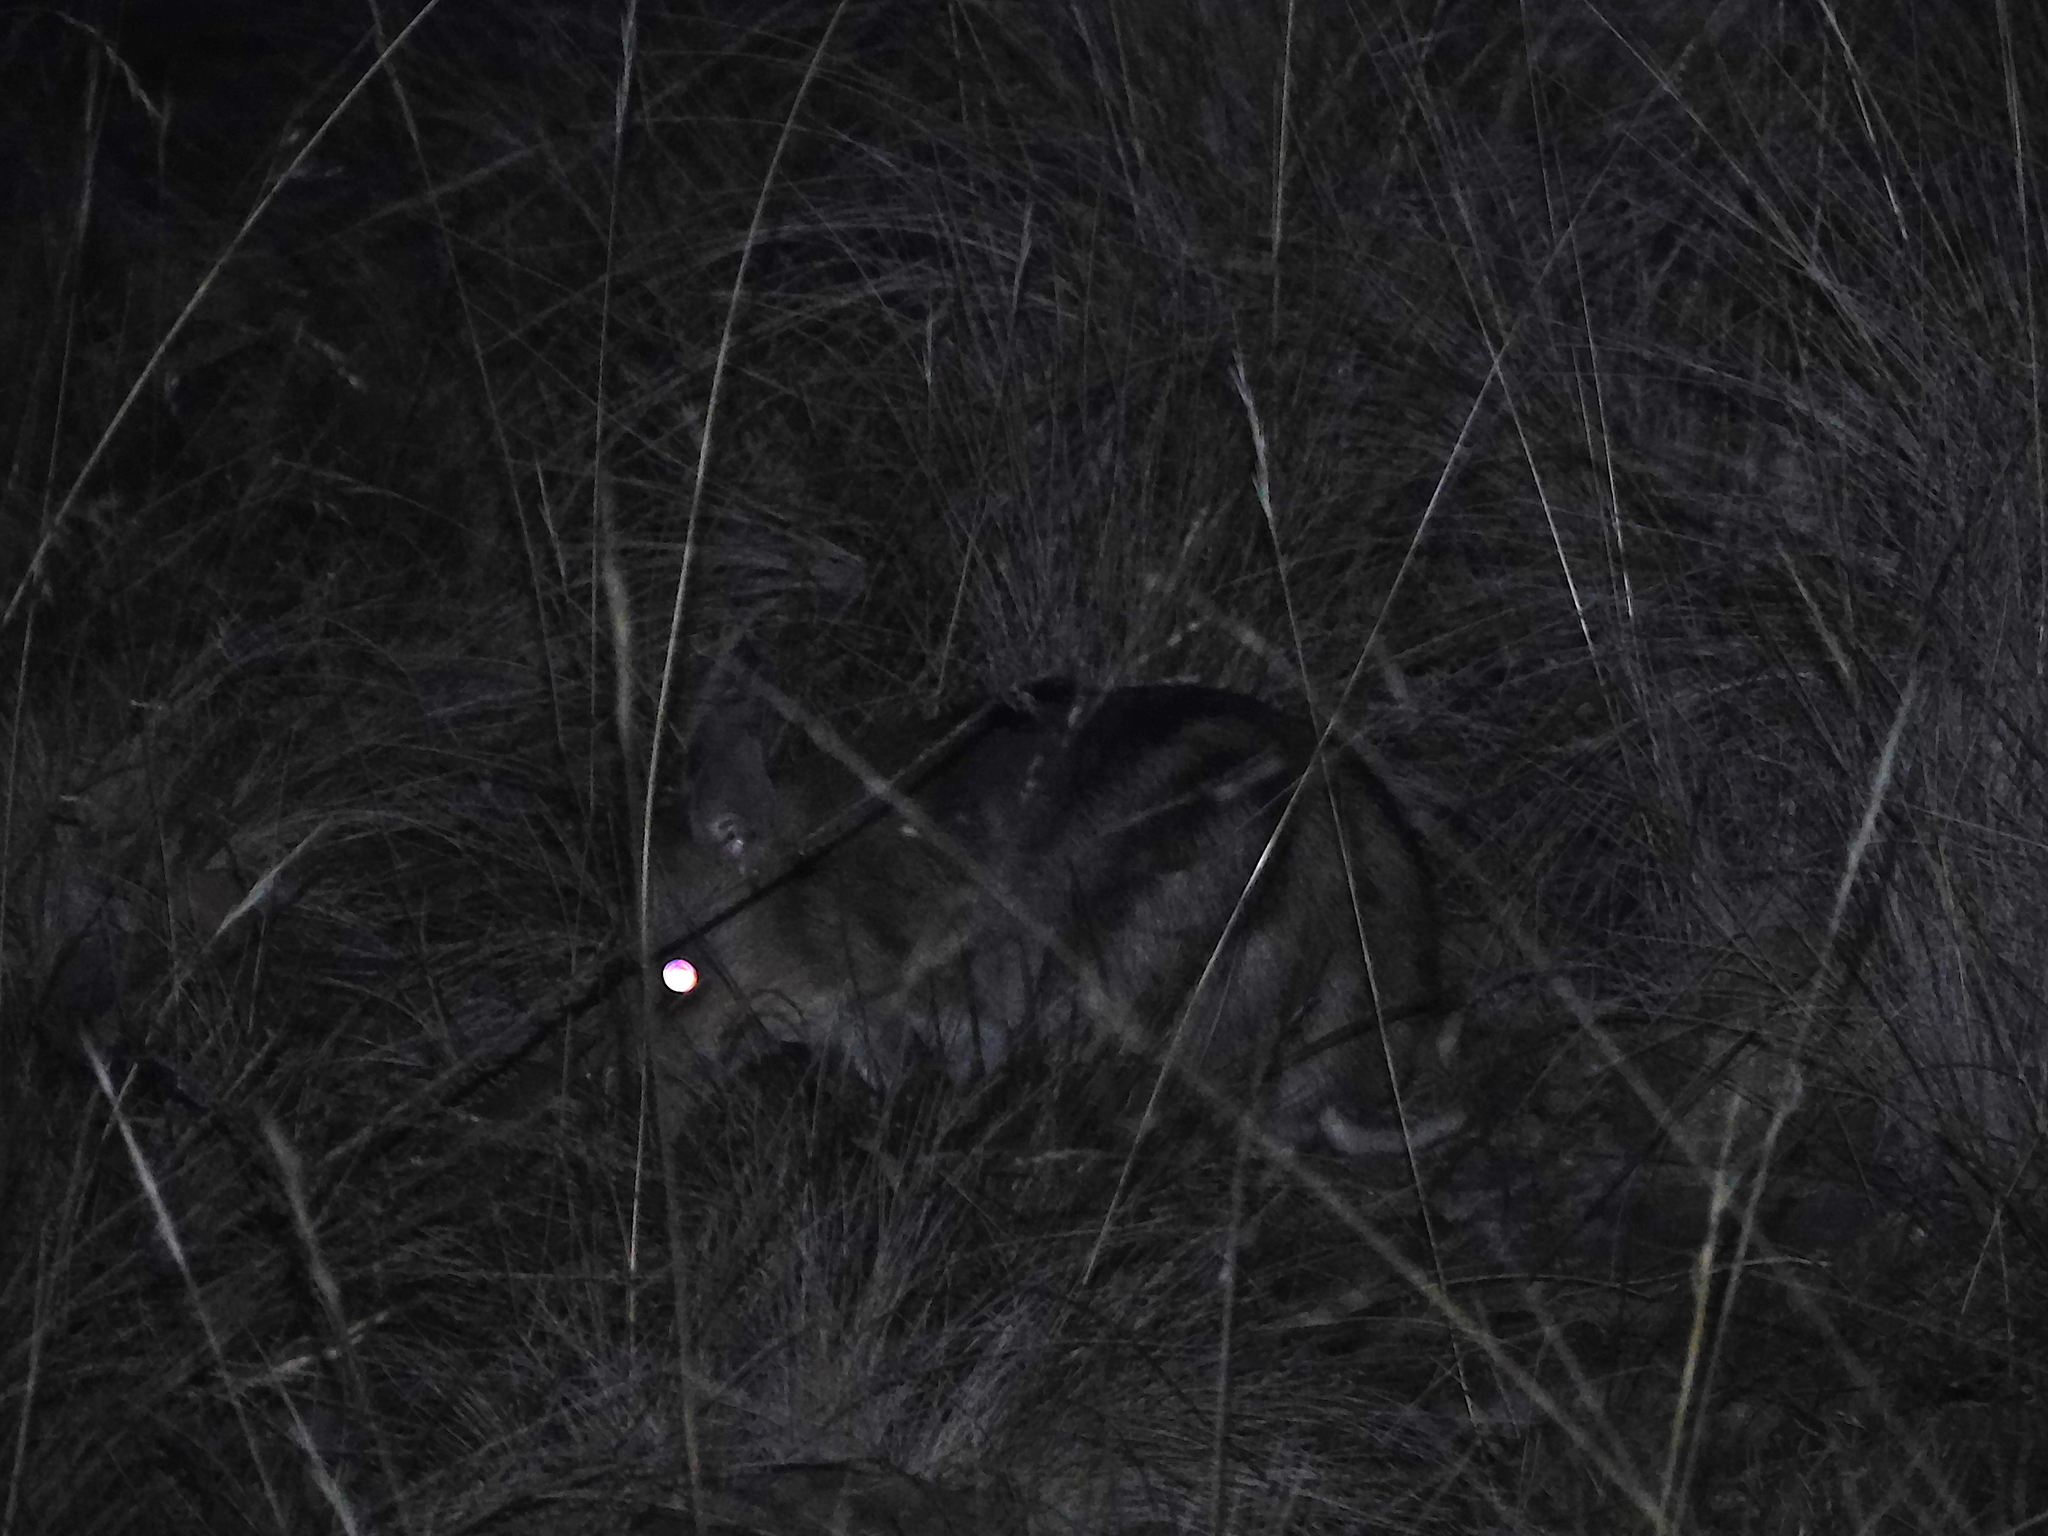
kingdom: Animalia
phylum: Chordata
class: Mammalia
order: Peramelemorphia
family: Peramelidae
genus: Perameles
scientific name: Perameles gunnii
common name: Eastern barred bandicoot
